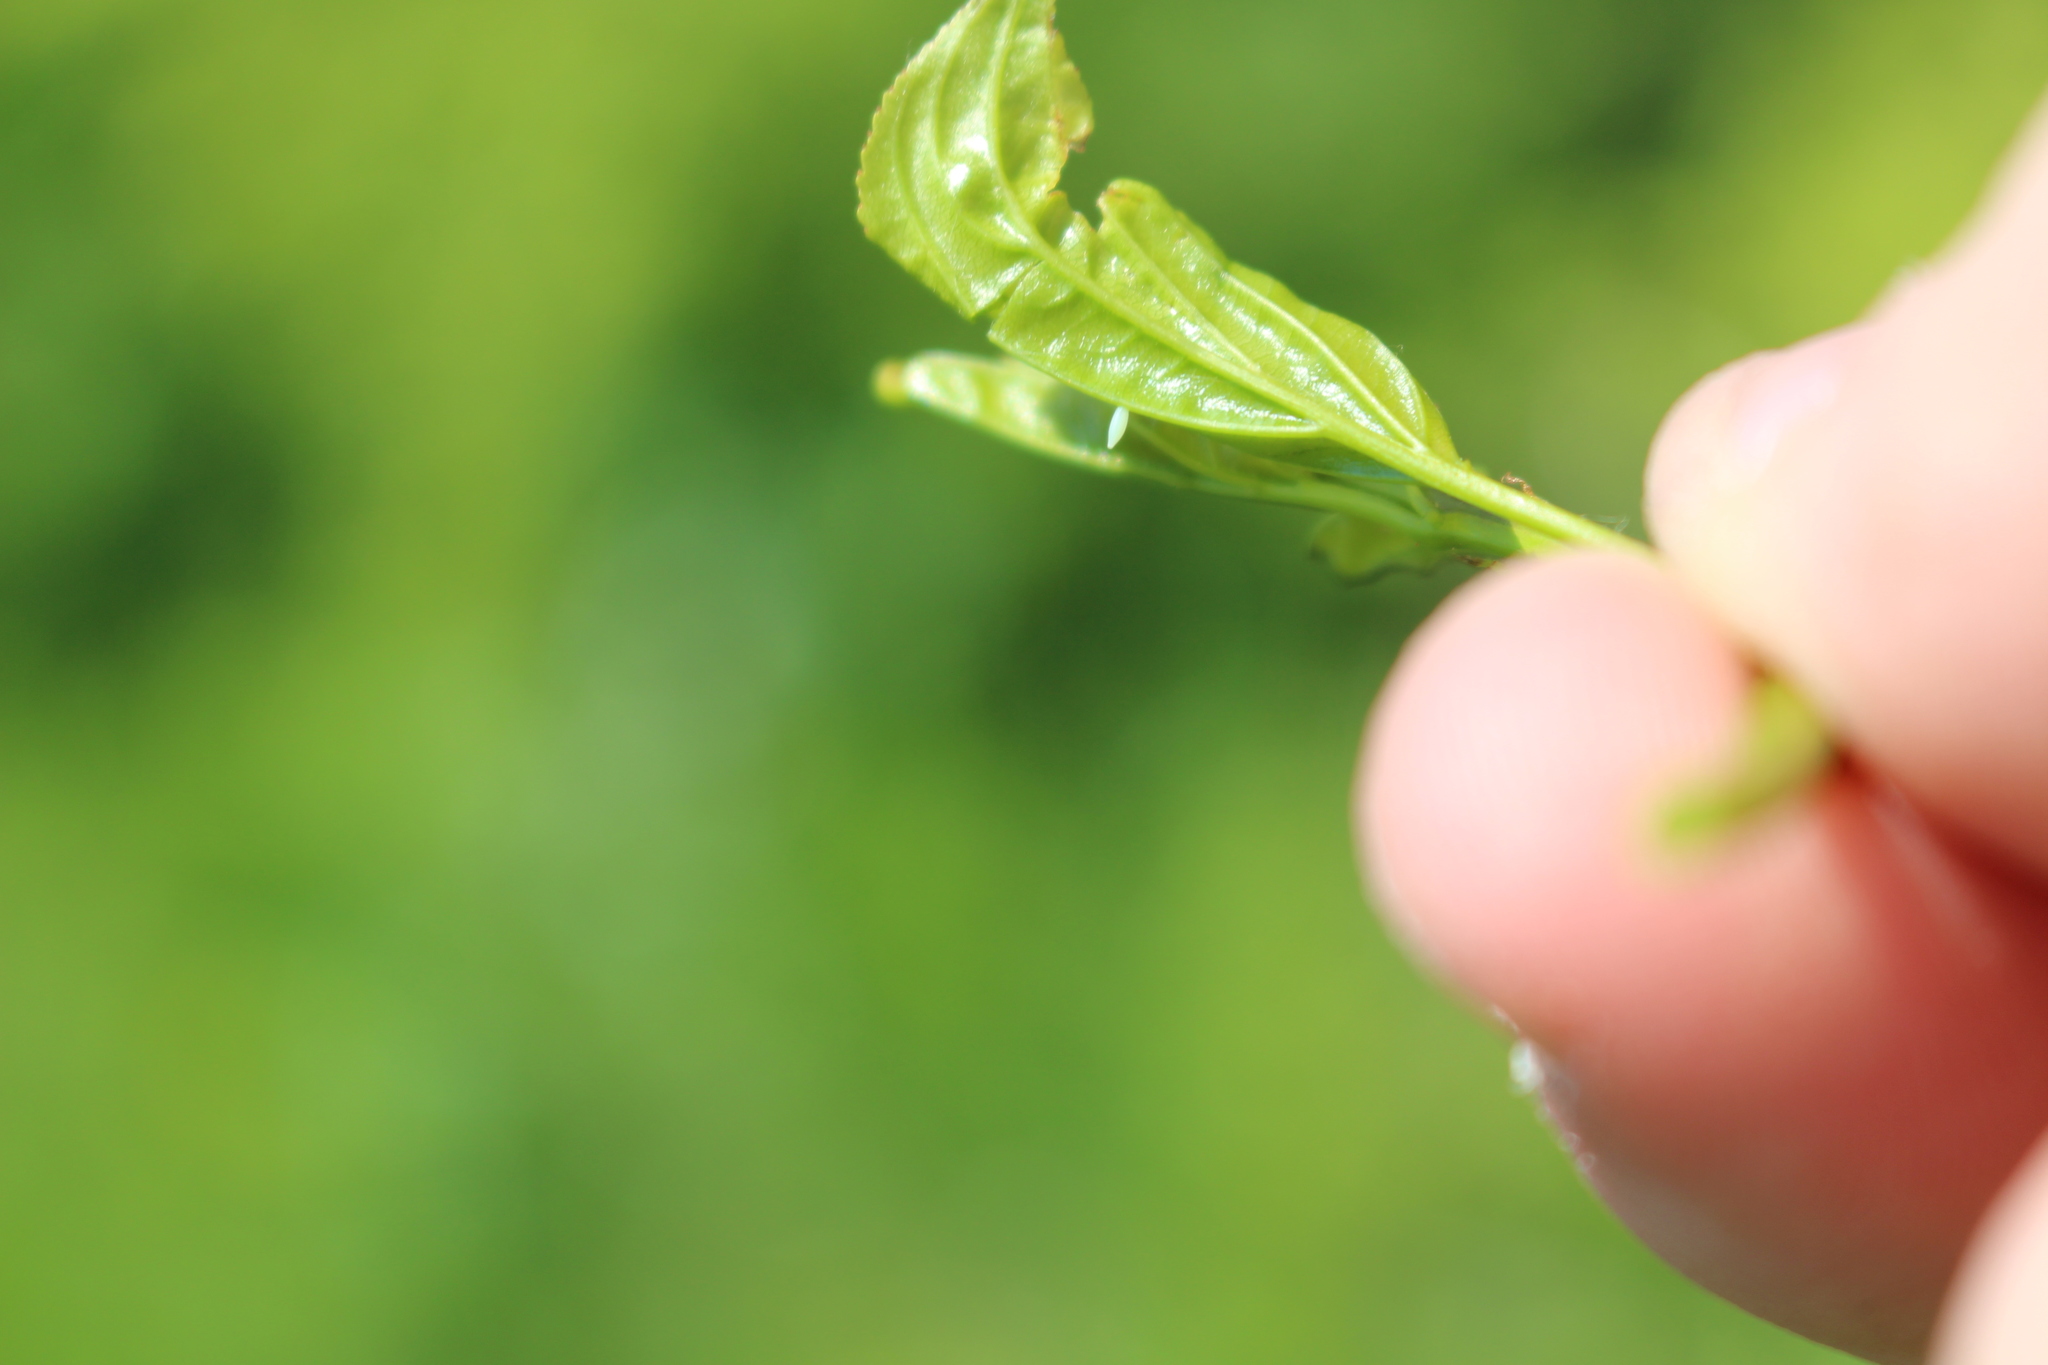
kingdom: Animalia
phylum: Arthropoda
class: Insecta
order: Lepidoptera
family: Pieridae
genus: Gonepteryx
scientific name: Gonepteryx rhamni
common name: Brimstone
